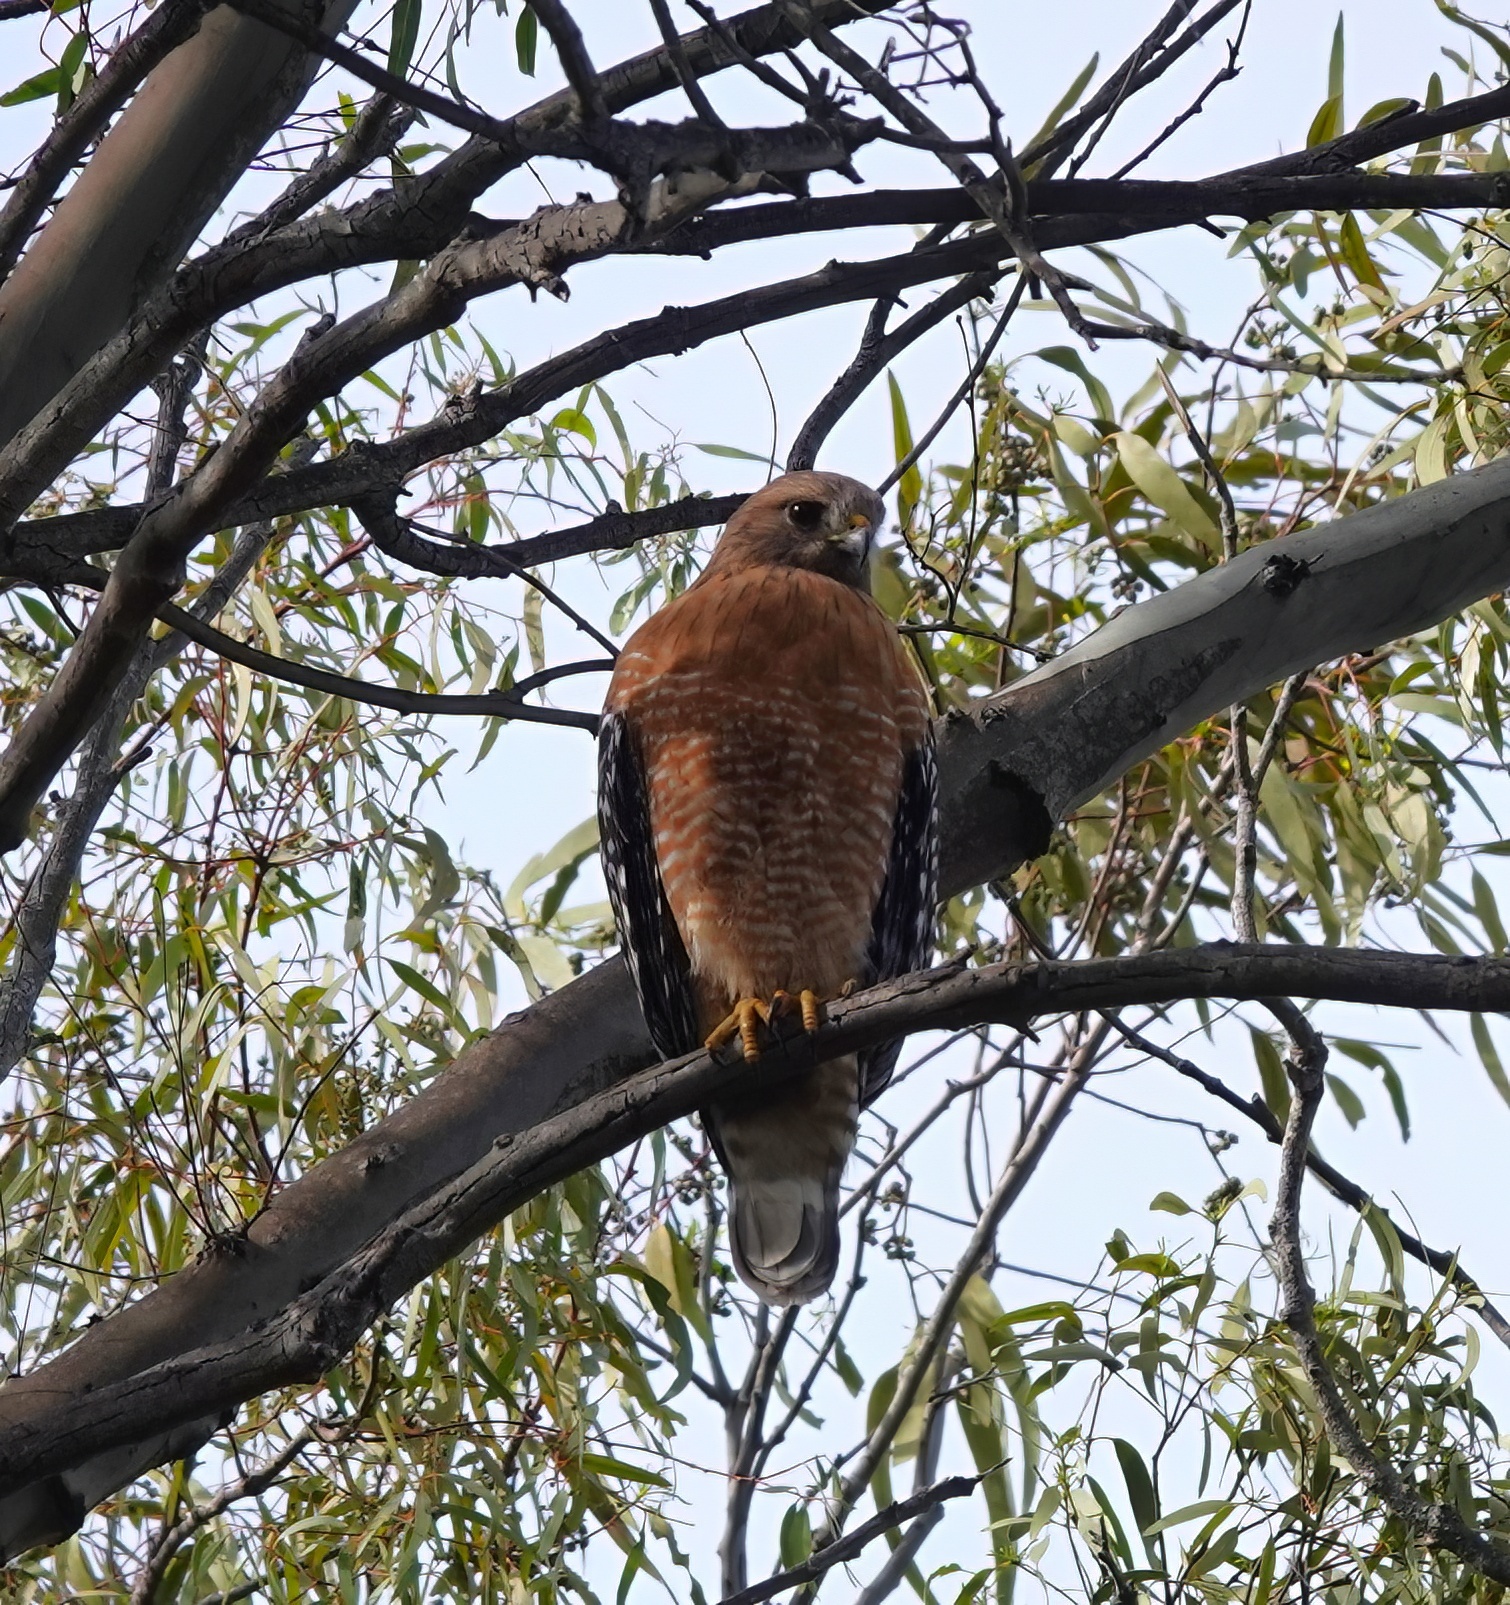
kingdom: Animalia
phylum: Chordata
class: Aves
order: Accipitriformes
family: Accipitridae
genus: Buteo
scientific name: Buteo lineatus
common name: Red-shouldered hawk
